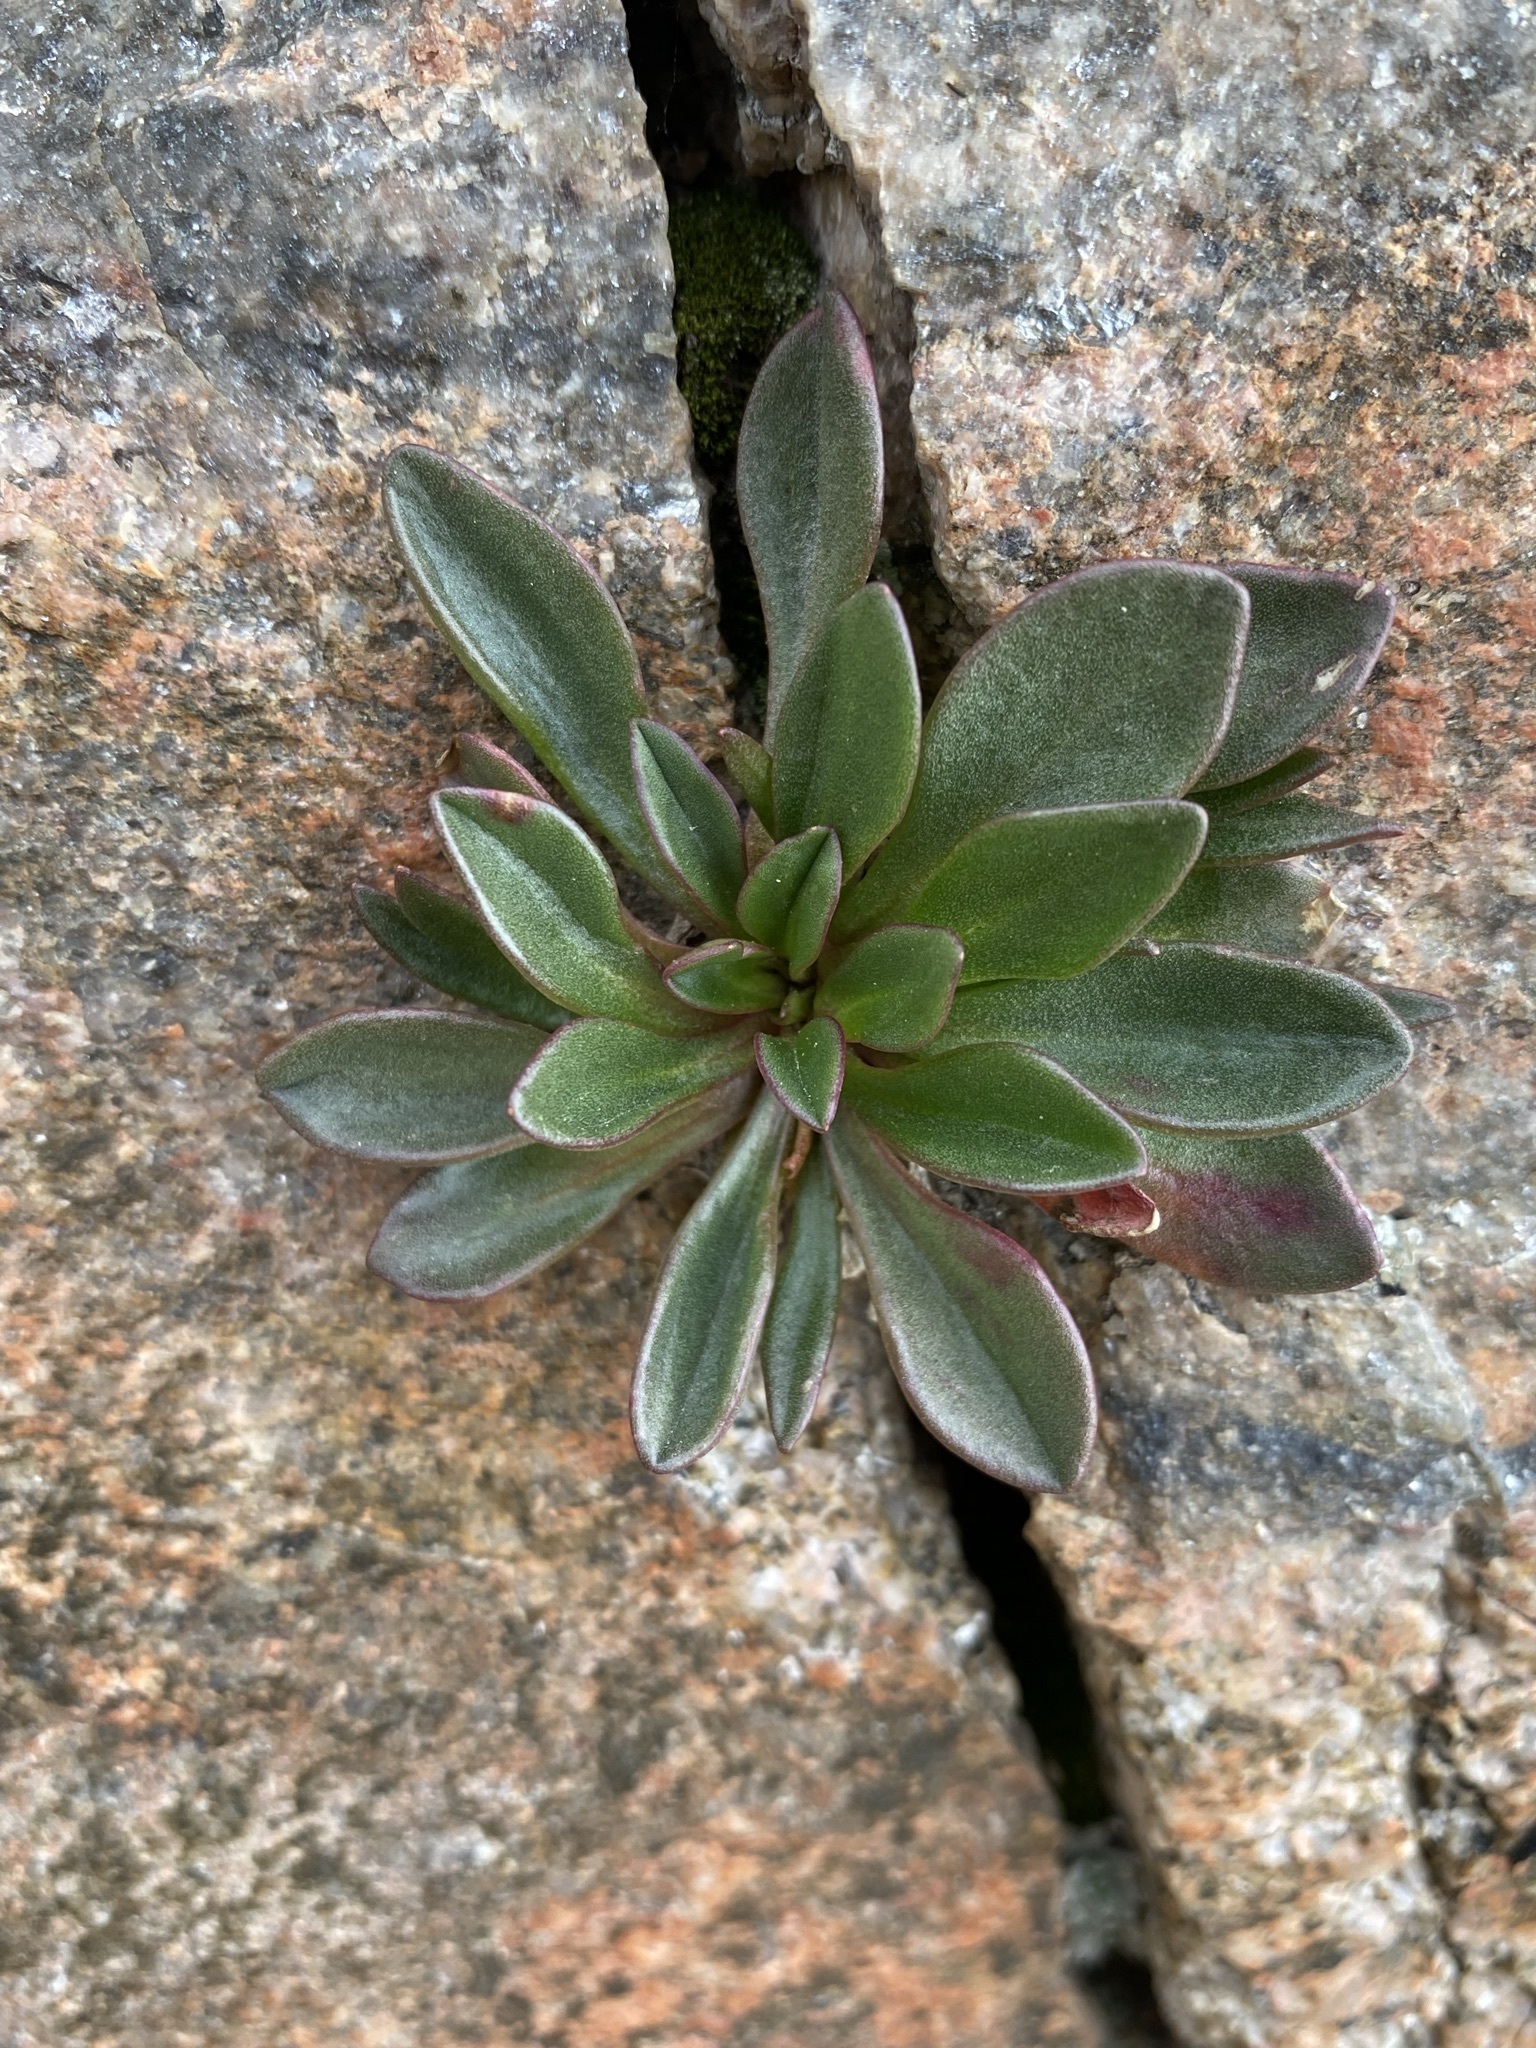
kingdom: Plantae
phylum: Tracheophyta
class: Magnoliopsida
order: Caryophyllales
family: Montiaceae
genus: Claytonia
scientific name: Claytonia megarhiza
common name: Alpine spring beauty
